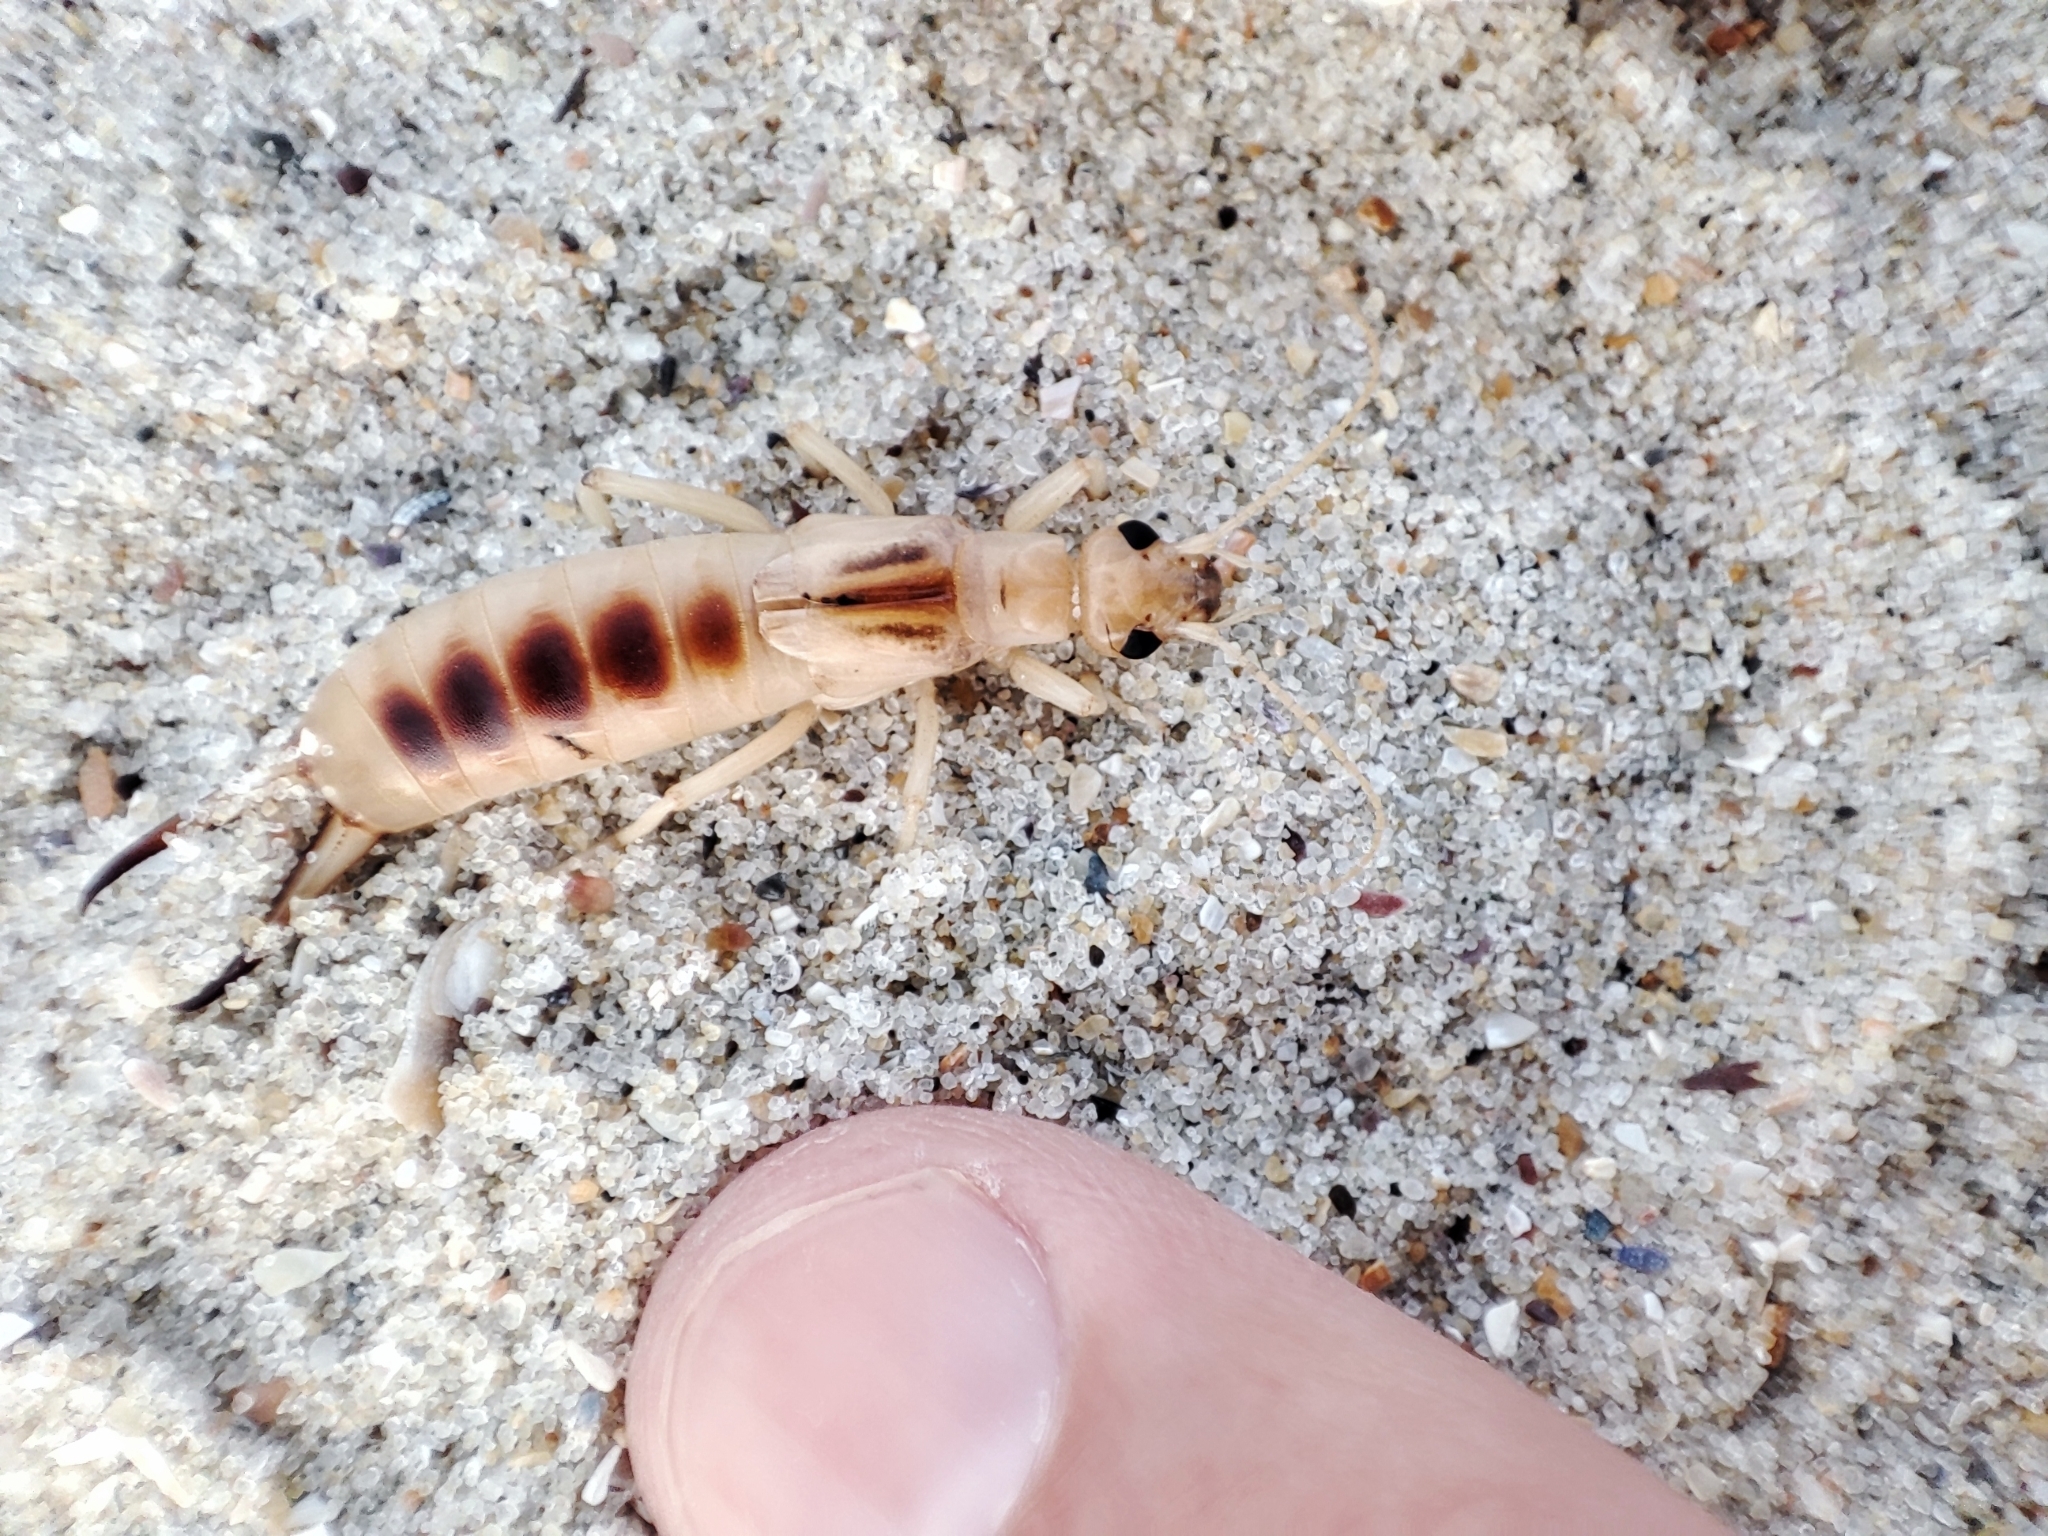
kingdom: Animalia
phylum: Arthropoda
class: Insecta
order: Dermaptera
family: Labiduridae
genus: Labidura
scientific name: Labidura riparia
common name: Striped earwig
